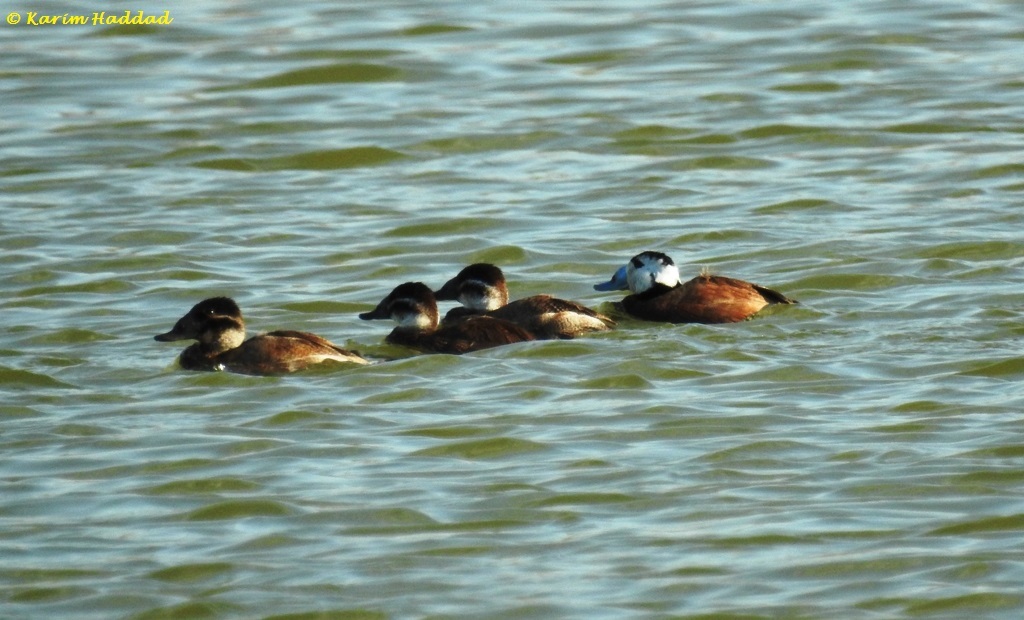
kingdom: Animalia
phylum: Chordata
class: Aves
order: Anseriformes
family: Anatidae
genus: Oxyura
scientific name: Oxyura leucocephala
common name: White-headed duck
